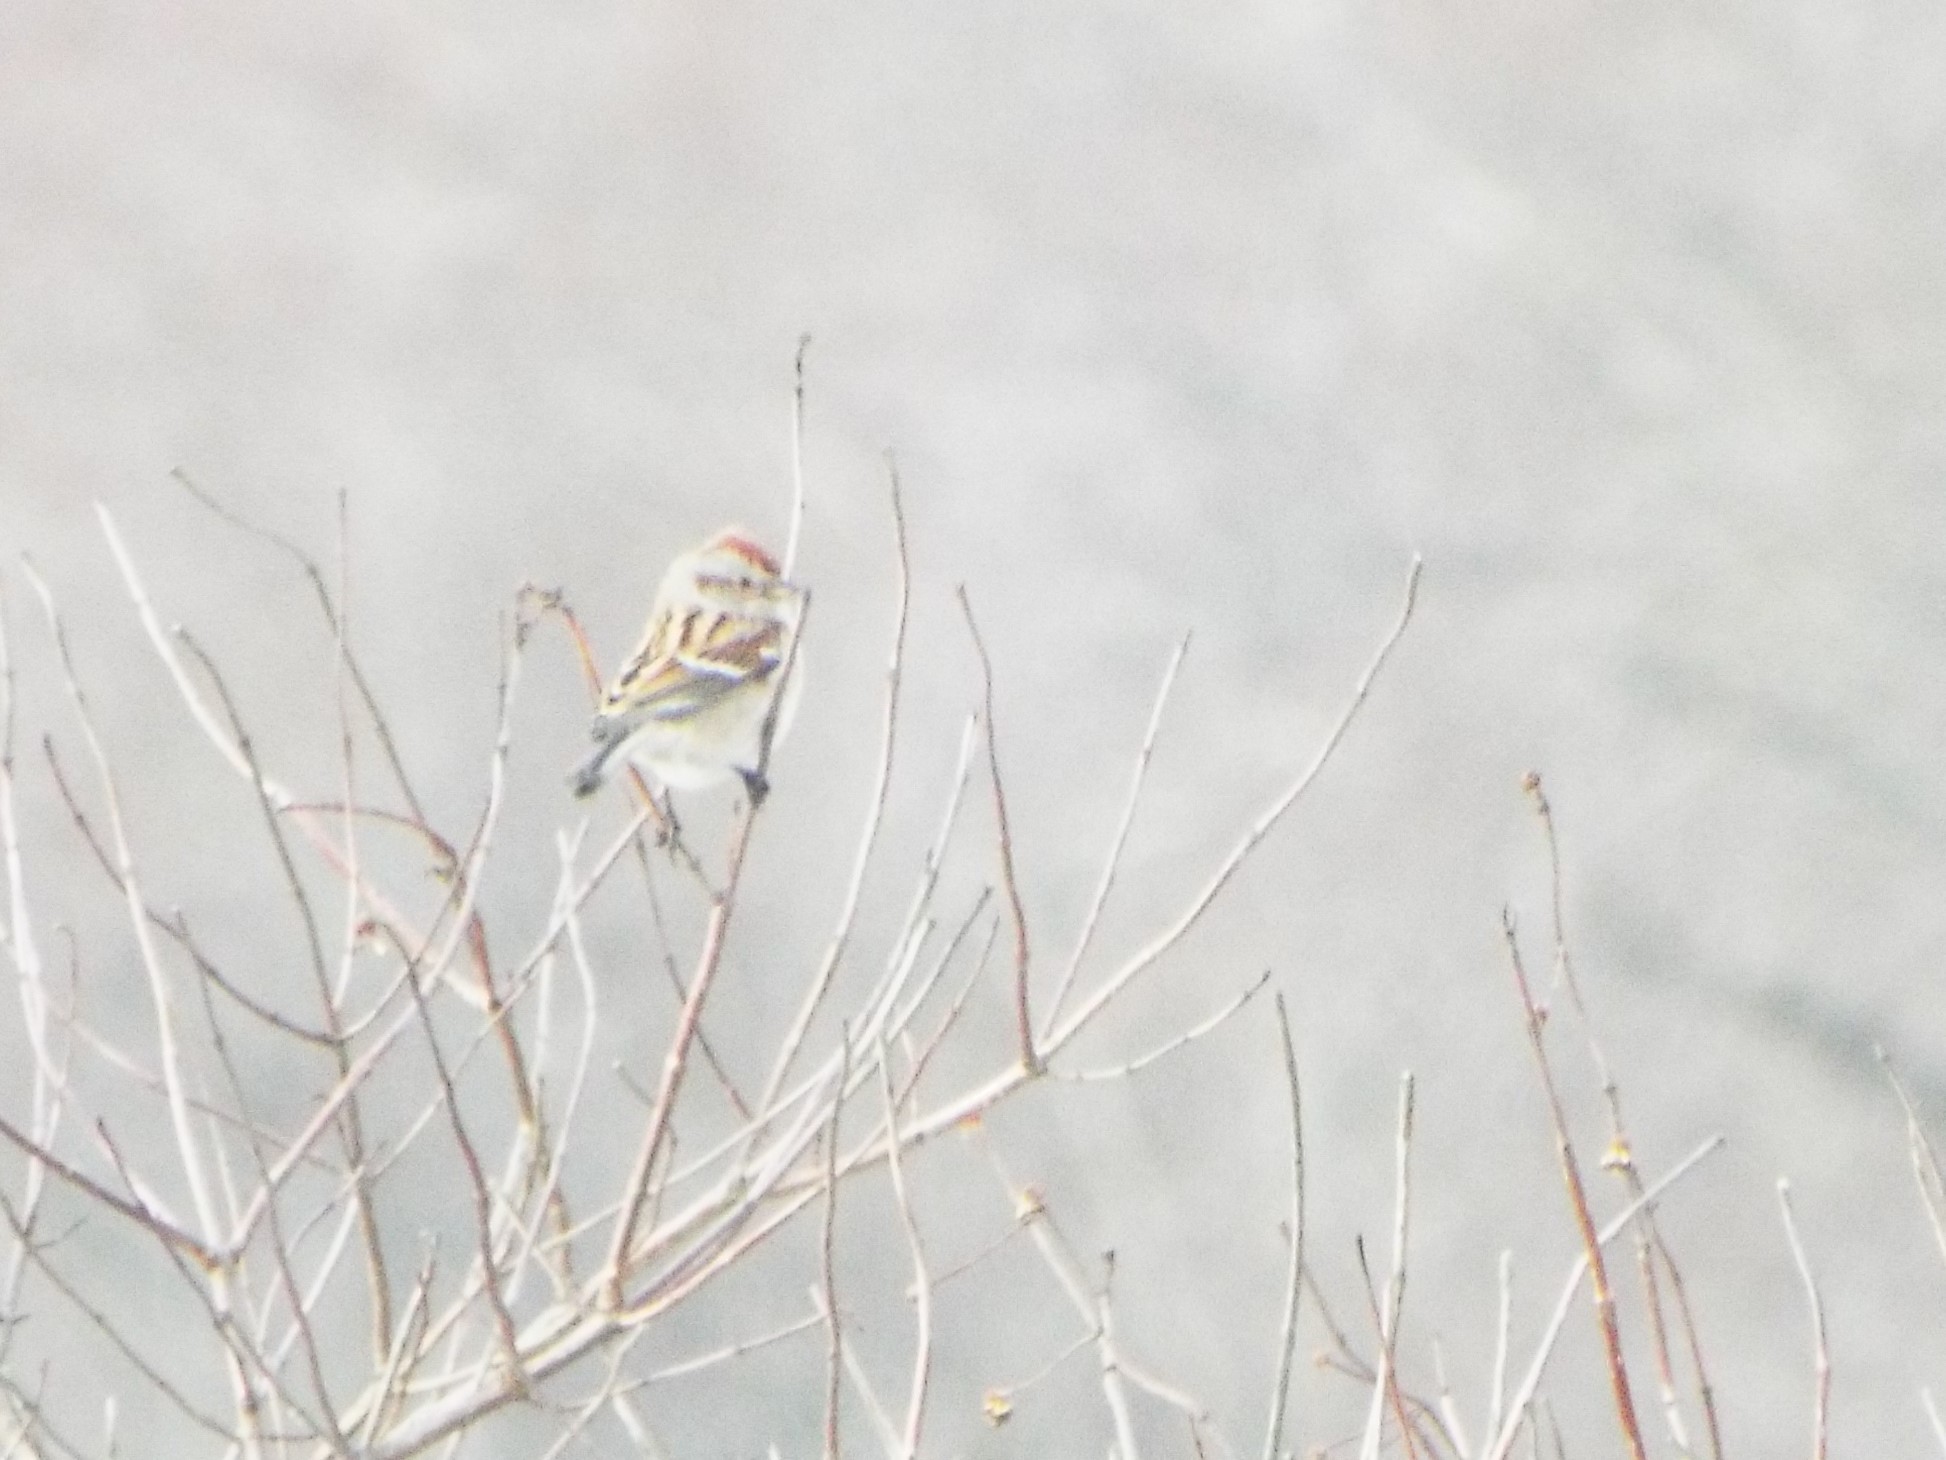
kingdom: Animalia
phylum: Chordata
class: Aves
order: Passeriformes
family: Passerellidae
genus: Spizelloides
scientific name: Spizelloides arborea
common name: American tree sparrow
